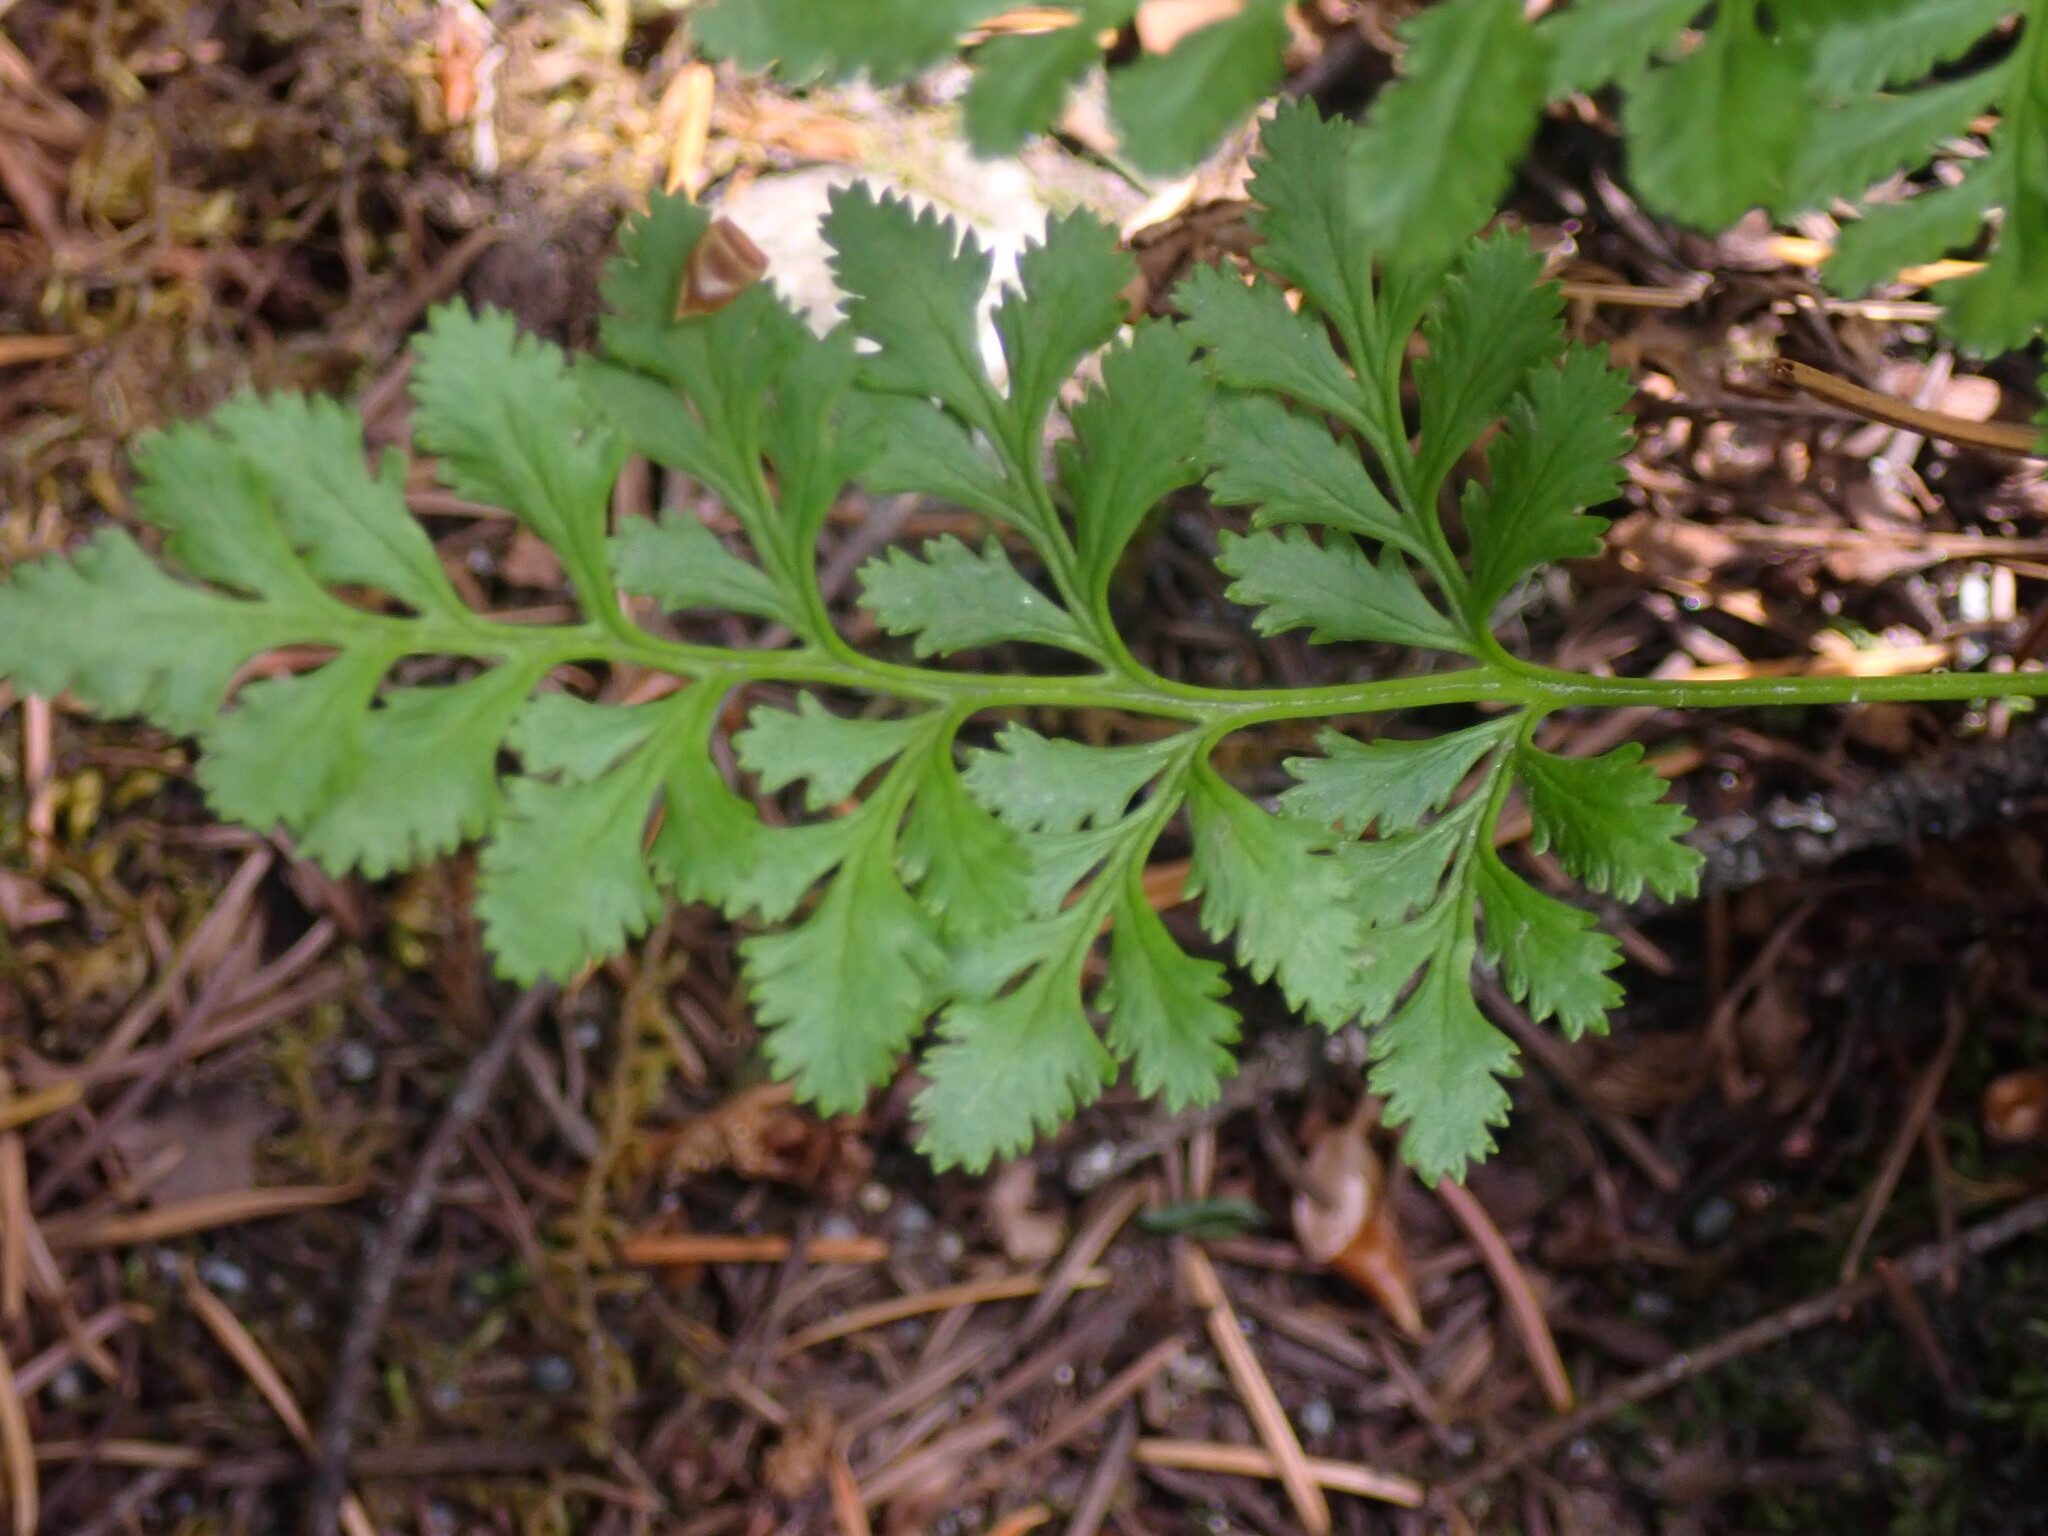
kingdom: Plantae
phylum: Tracheophyta
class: Polypodiopsida
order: Polypodiales
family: Pteridaceae
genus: Cryptogramma
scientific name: Cryptogramma acrostichoides
